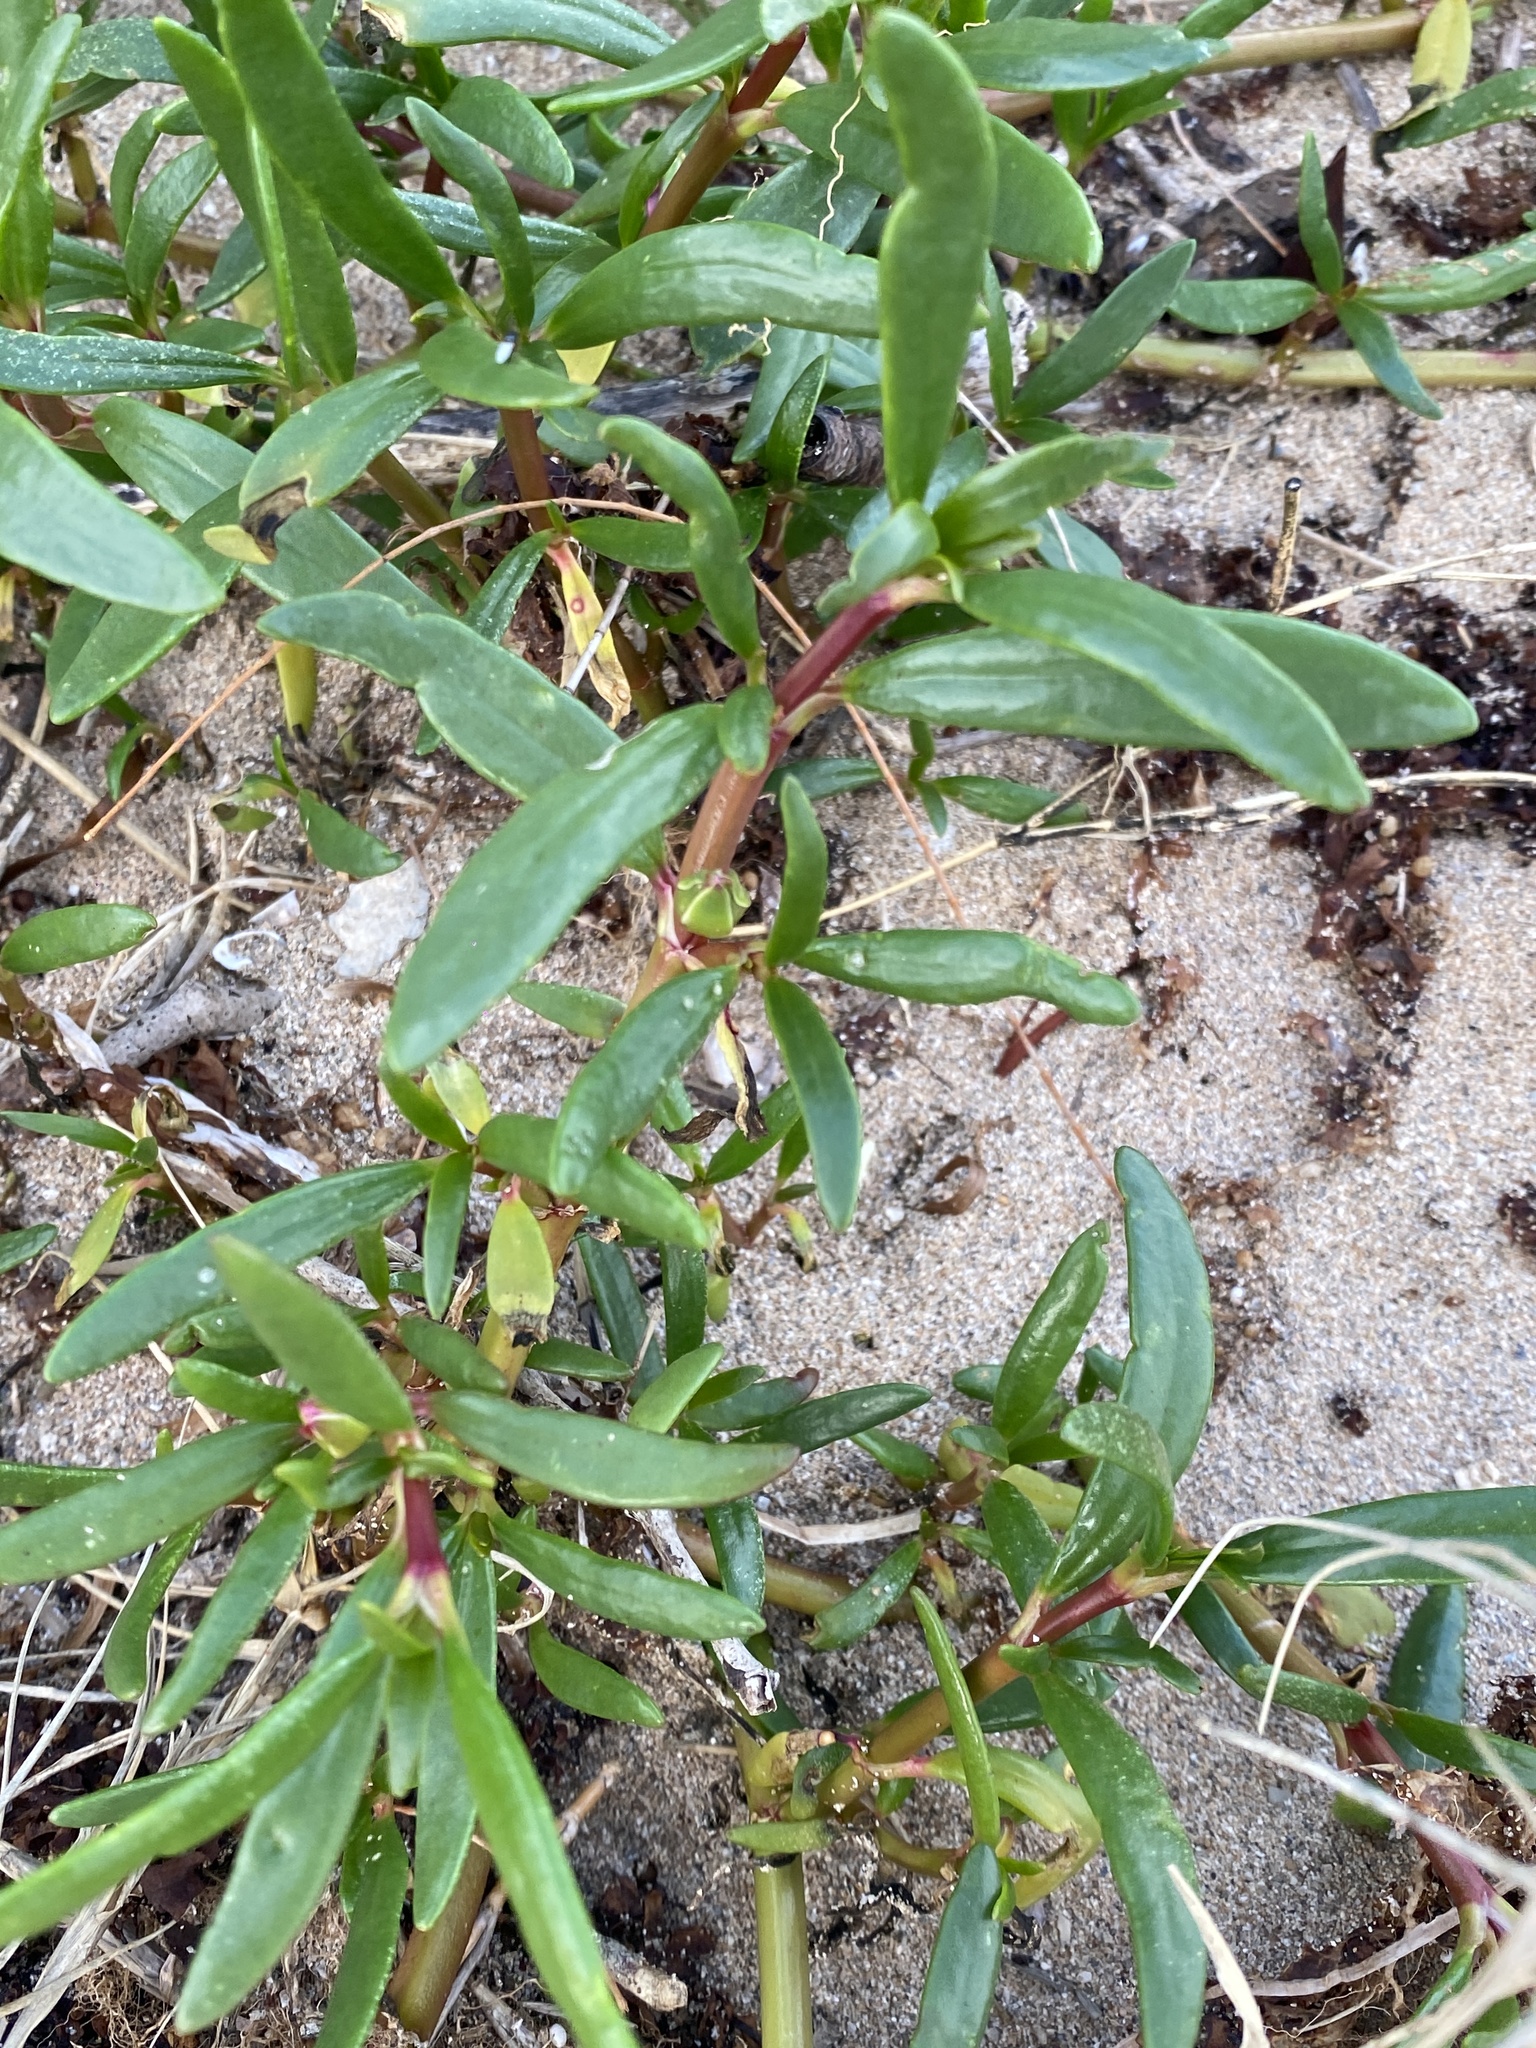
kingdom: Plantae
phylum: Tracheophyta
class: Magnoliopsida
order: Caryophyllales
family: Aizoaceae
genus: Sesuvium
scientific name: Sesuvium portulacastrum
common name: Sea-purslane
